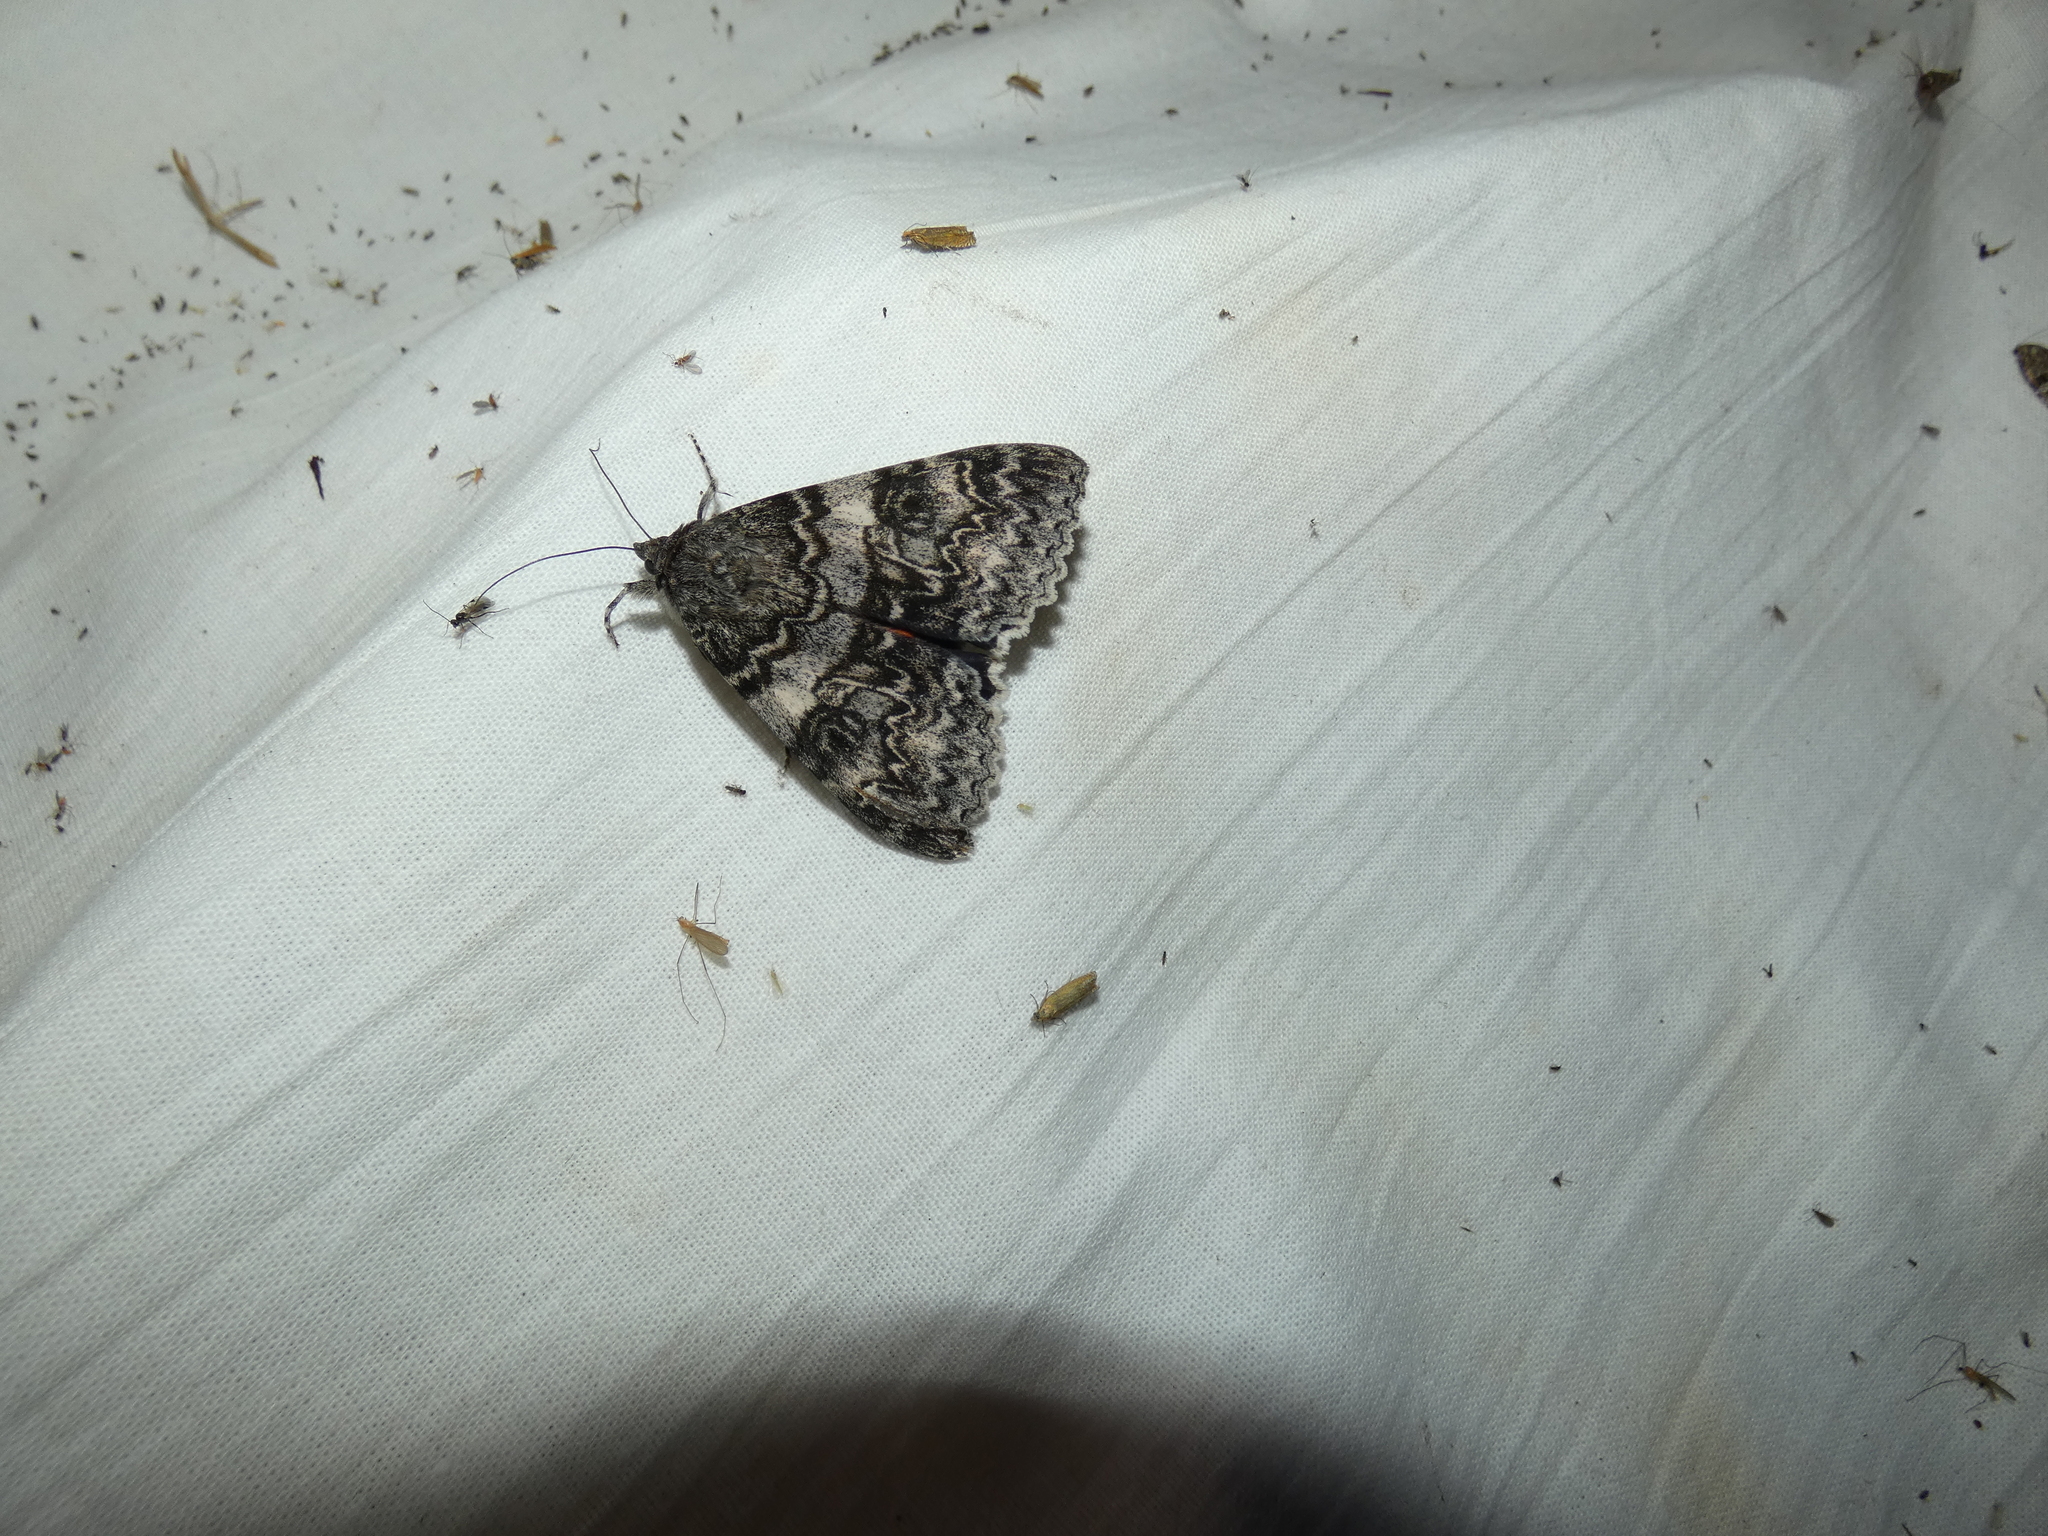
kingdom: Animalia
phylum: Arthropoda
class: Insecta
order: Lepidoptera
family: Erebidae
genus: Catocala
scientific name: Catocala adultera
